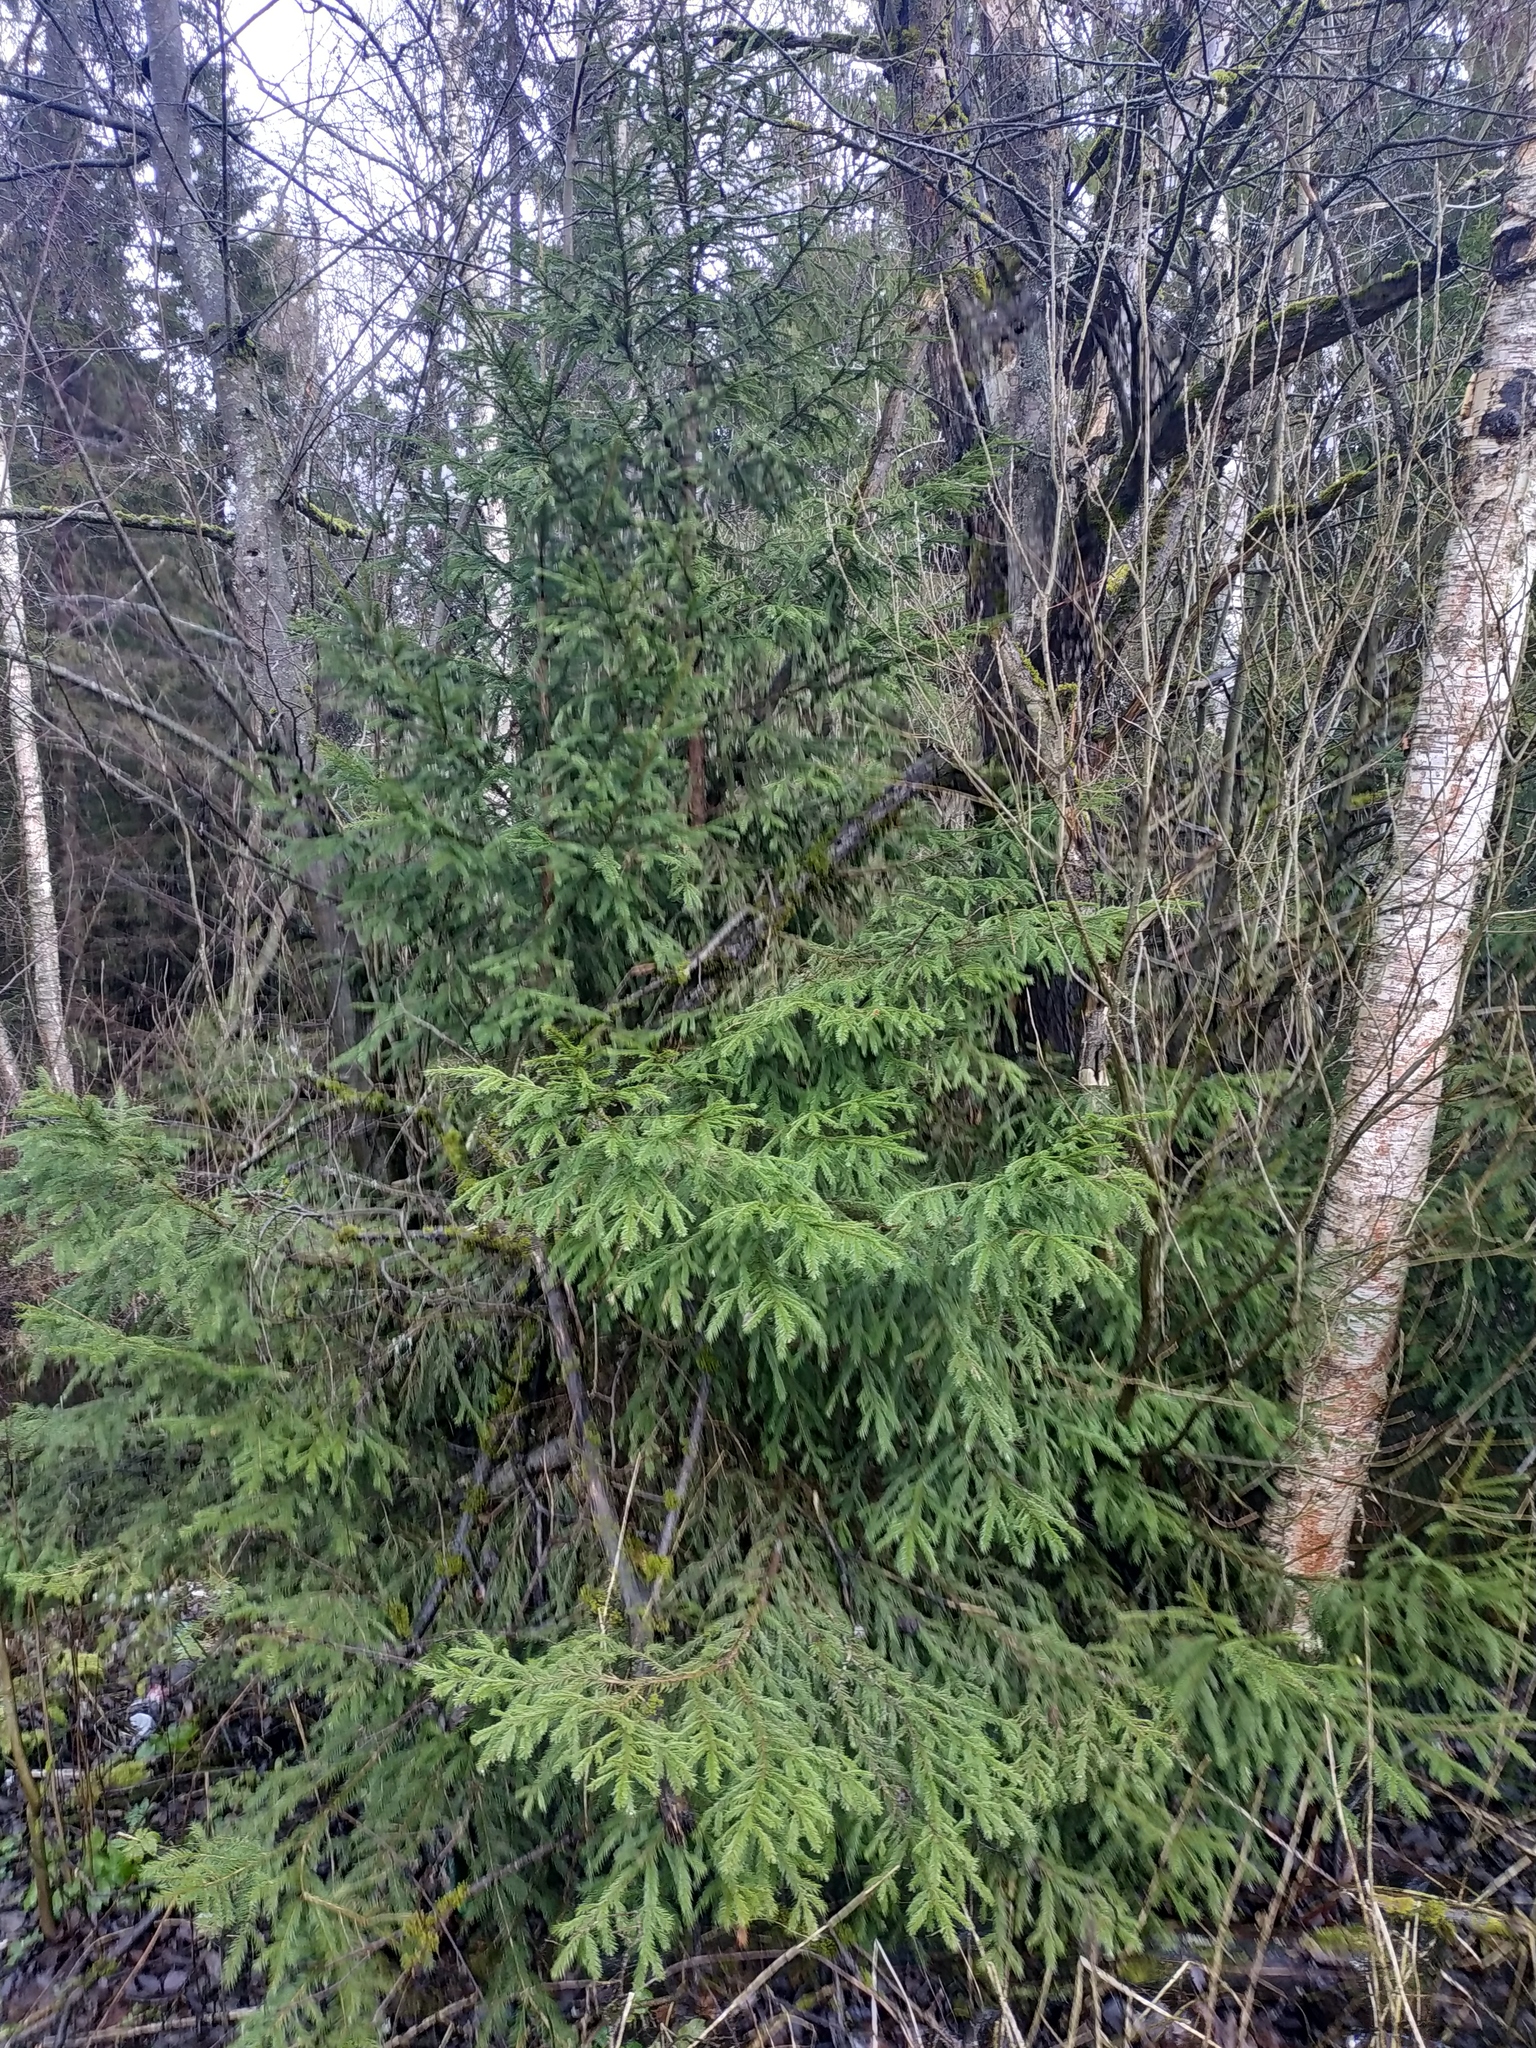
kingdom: Plantae
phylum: Tracheophyta
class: Pinopsida
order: Pinales
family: Pinaceae
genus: Picea
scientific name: Picea abies
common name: Norway spruce
